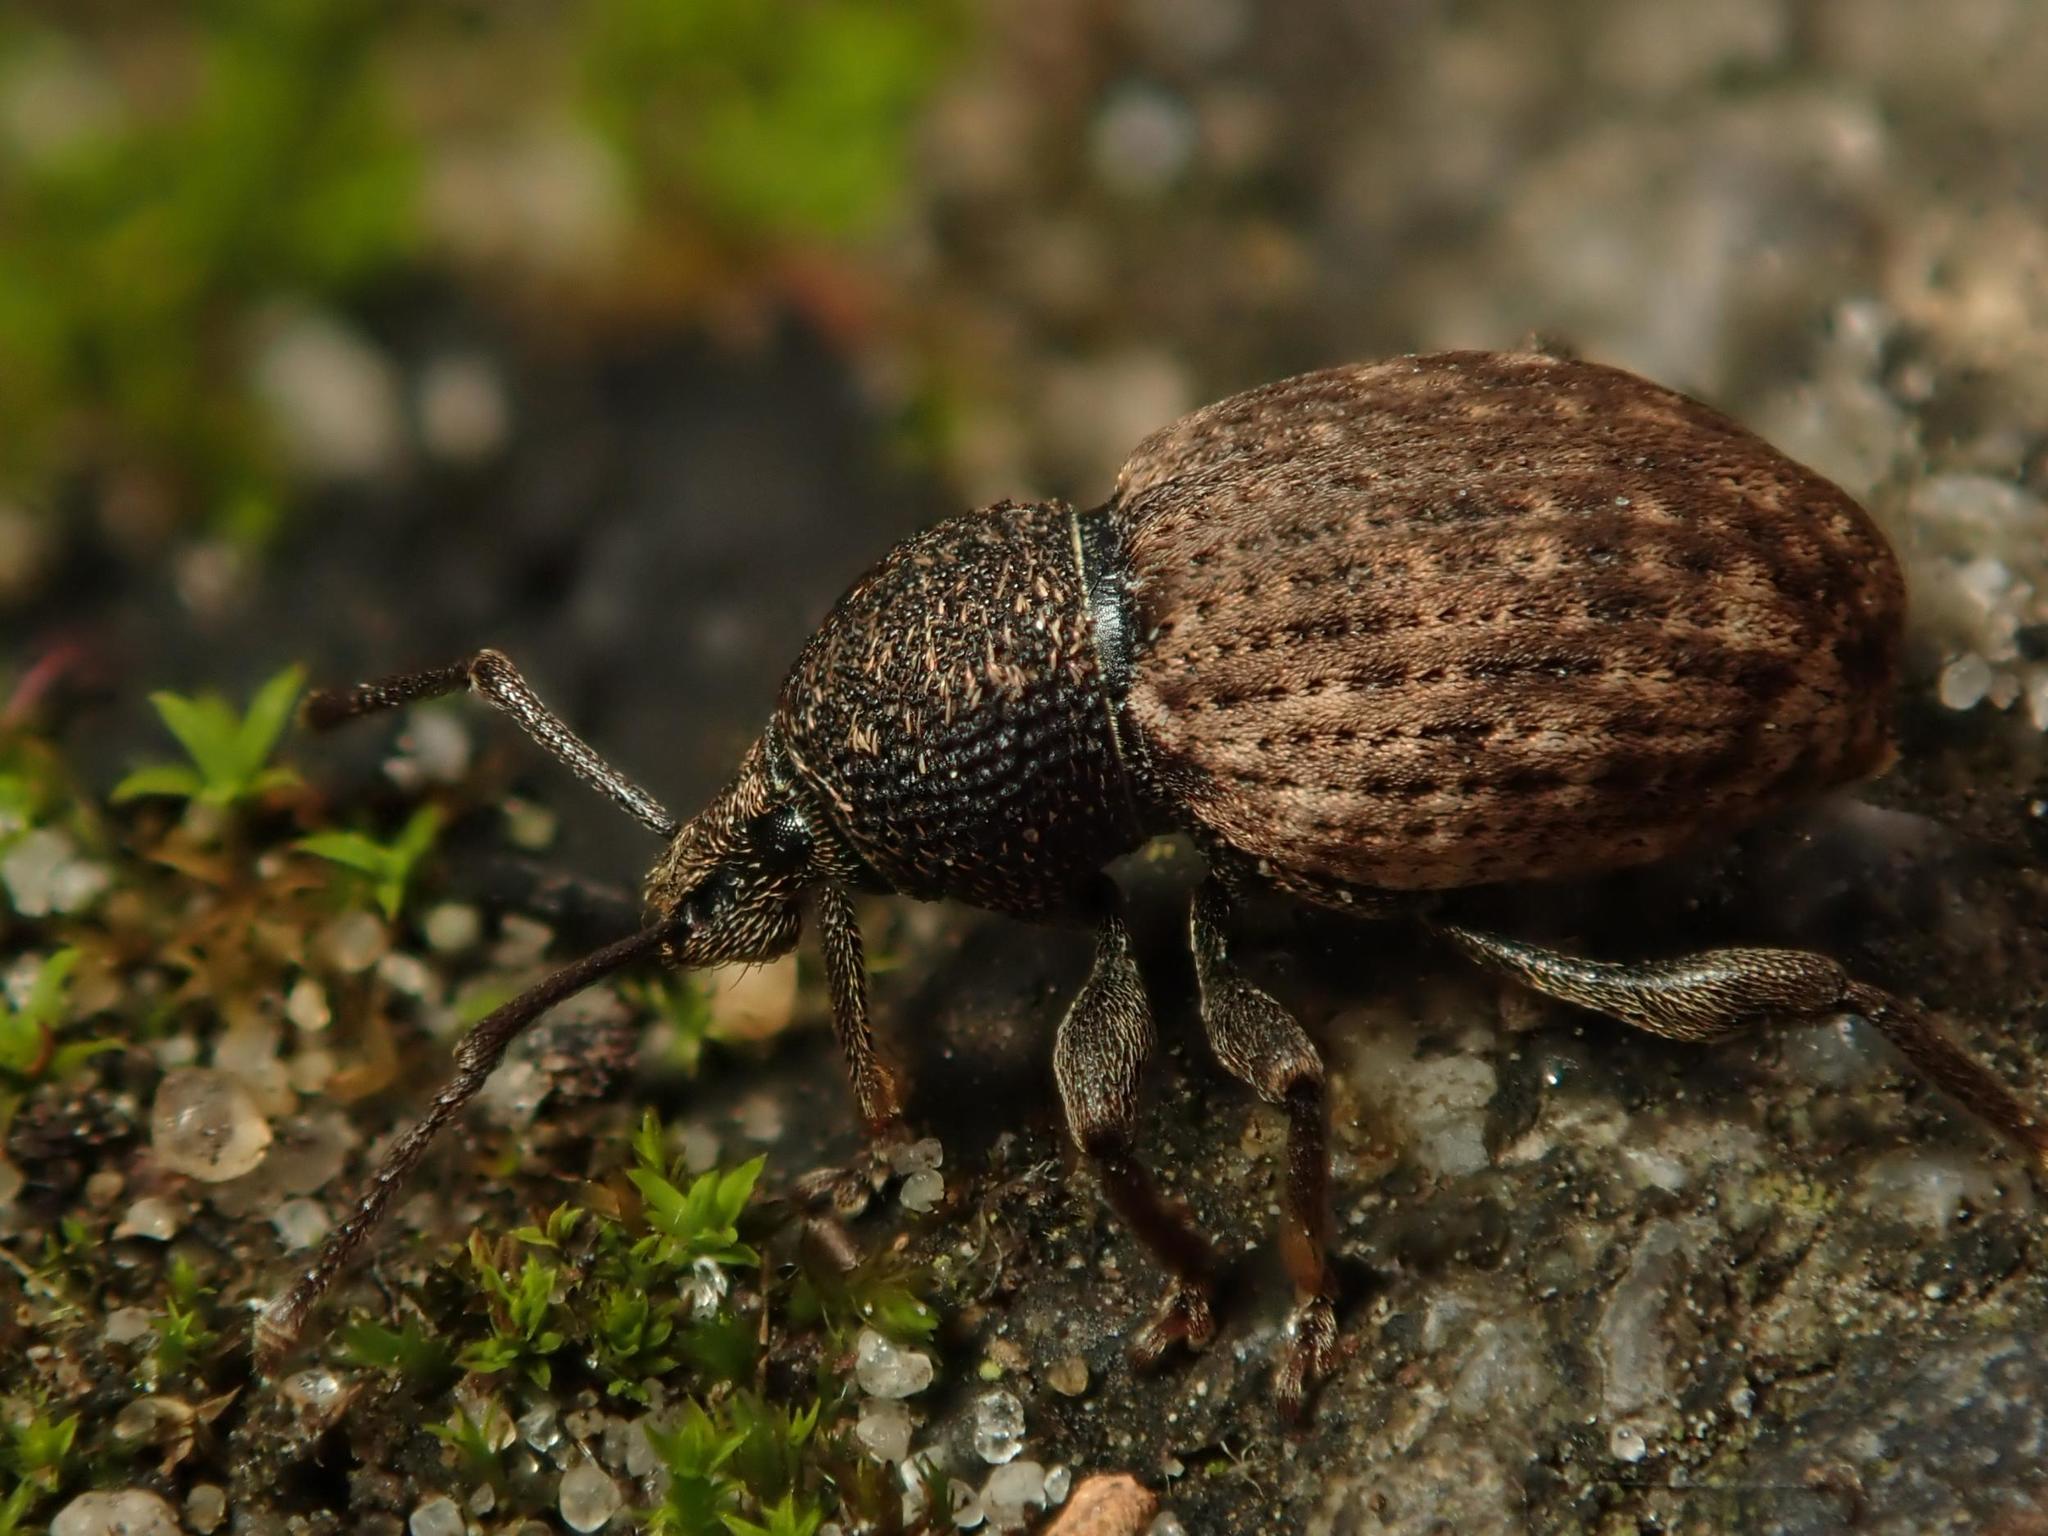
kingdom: Animalia
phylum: Arthropoda
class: Insecta
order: Coleoptera
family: Curculionidae
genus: Otiorhynchus
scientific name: Otiorhynchus raucus
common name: Weevil
